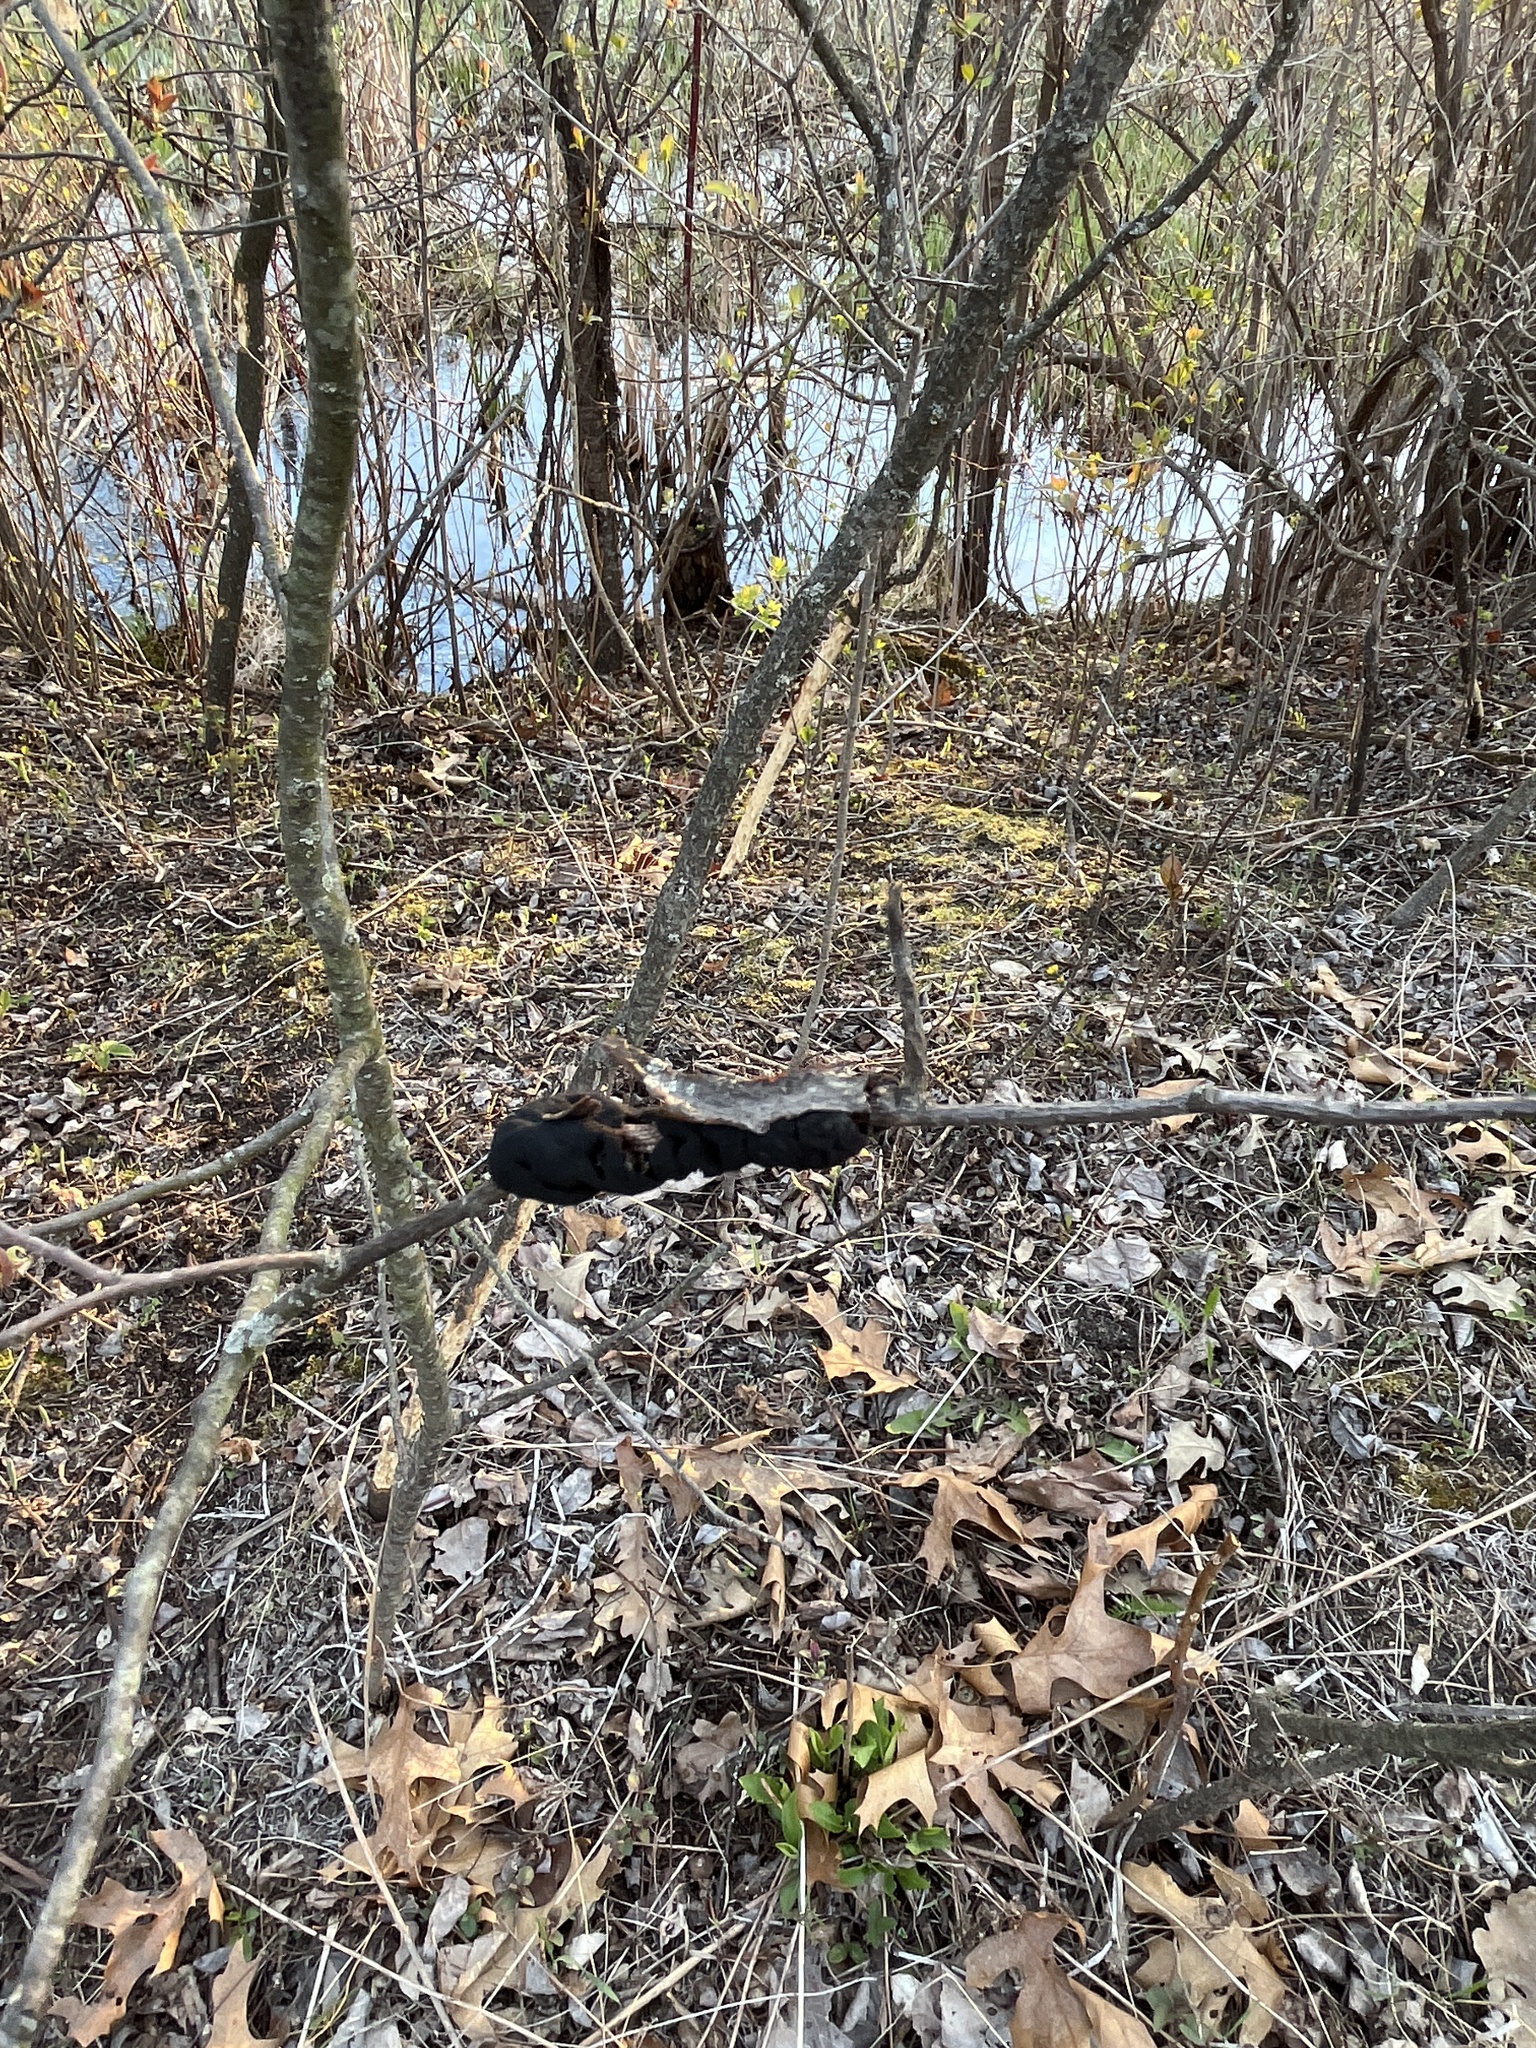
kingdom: Fungi
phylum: Ascomycota
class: Dothideomycetes
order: Venturiales
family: Venturiaceae
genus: Apiosporina
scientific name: Apiosporina morbosa
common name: Black knot
